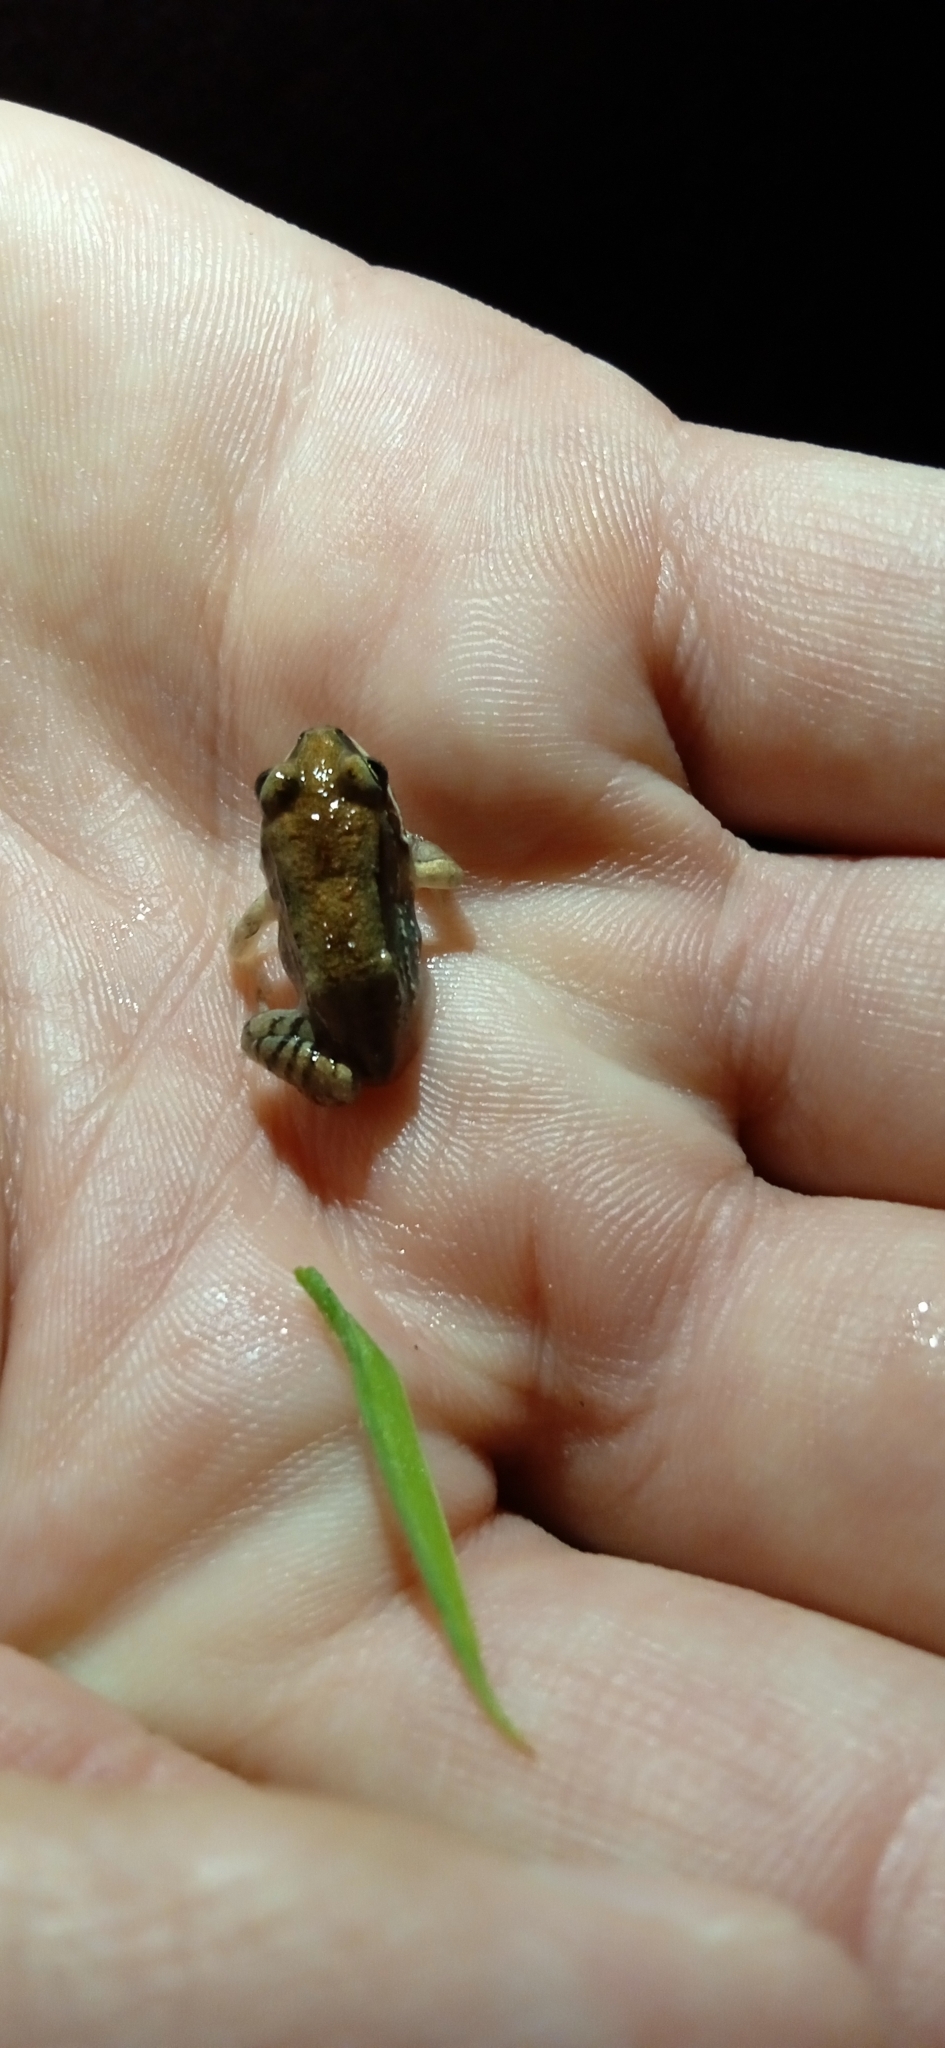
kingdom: Animalia
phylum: Chordata
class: Amphibia
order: Anura
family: Leptodactylidae
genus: Leptodactylus
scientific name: Leptodactylus mystacinus
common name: Moustached frog
